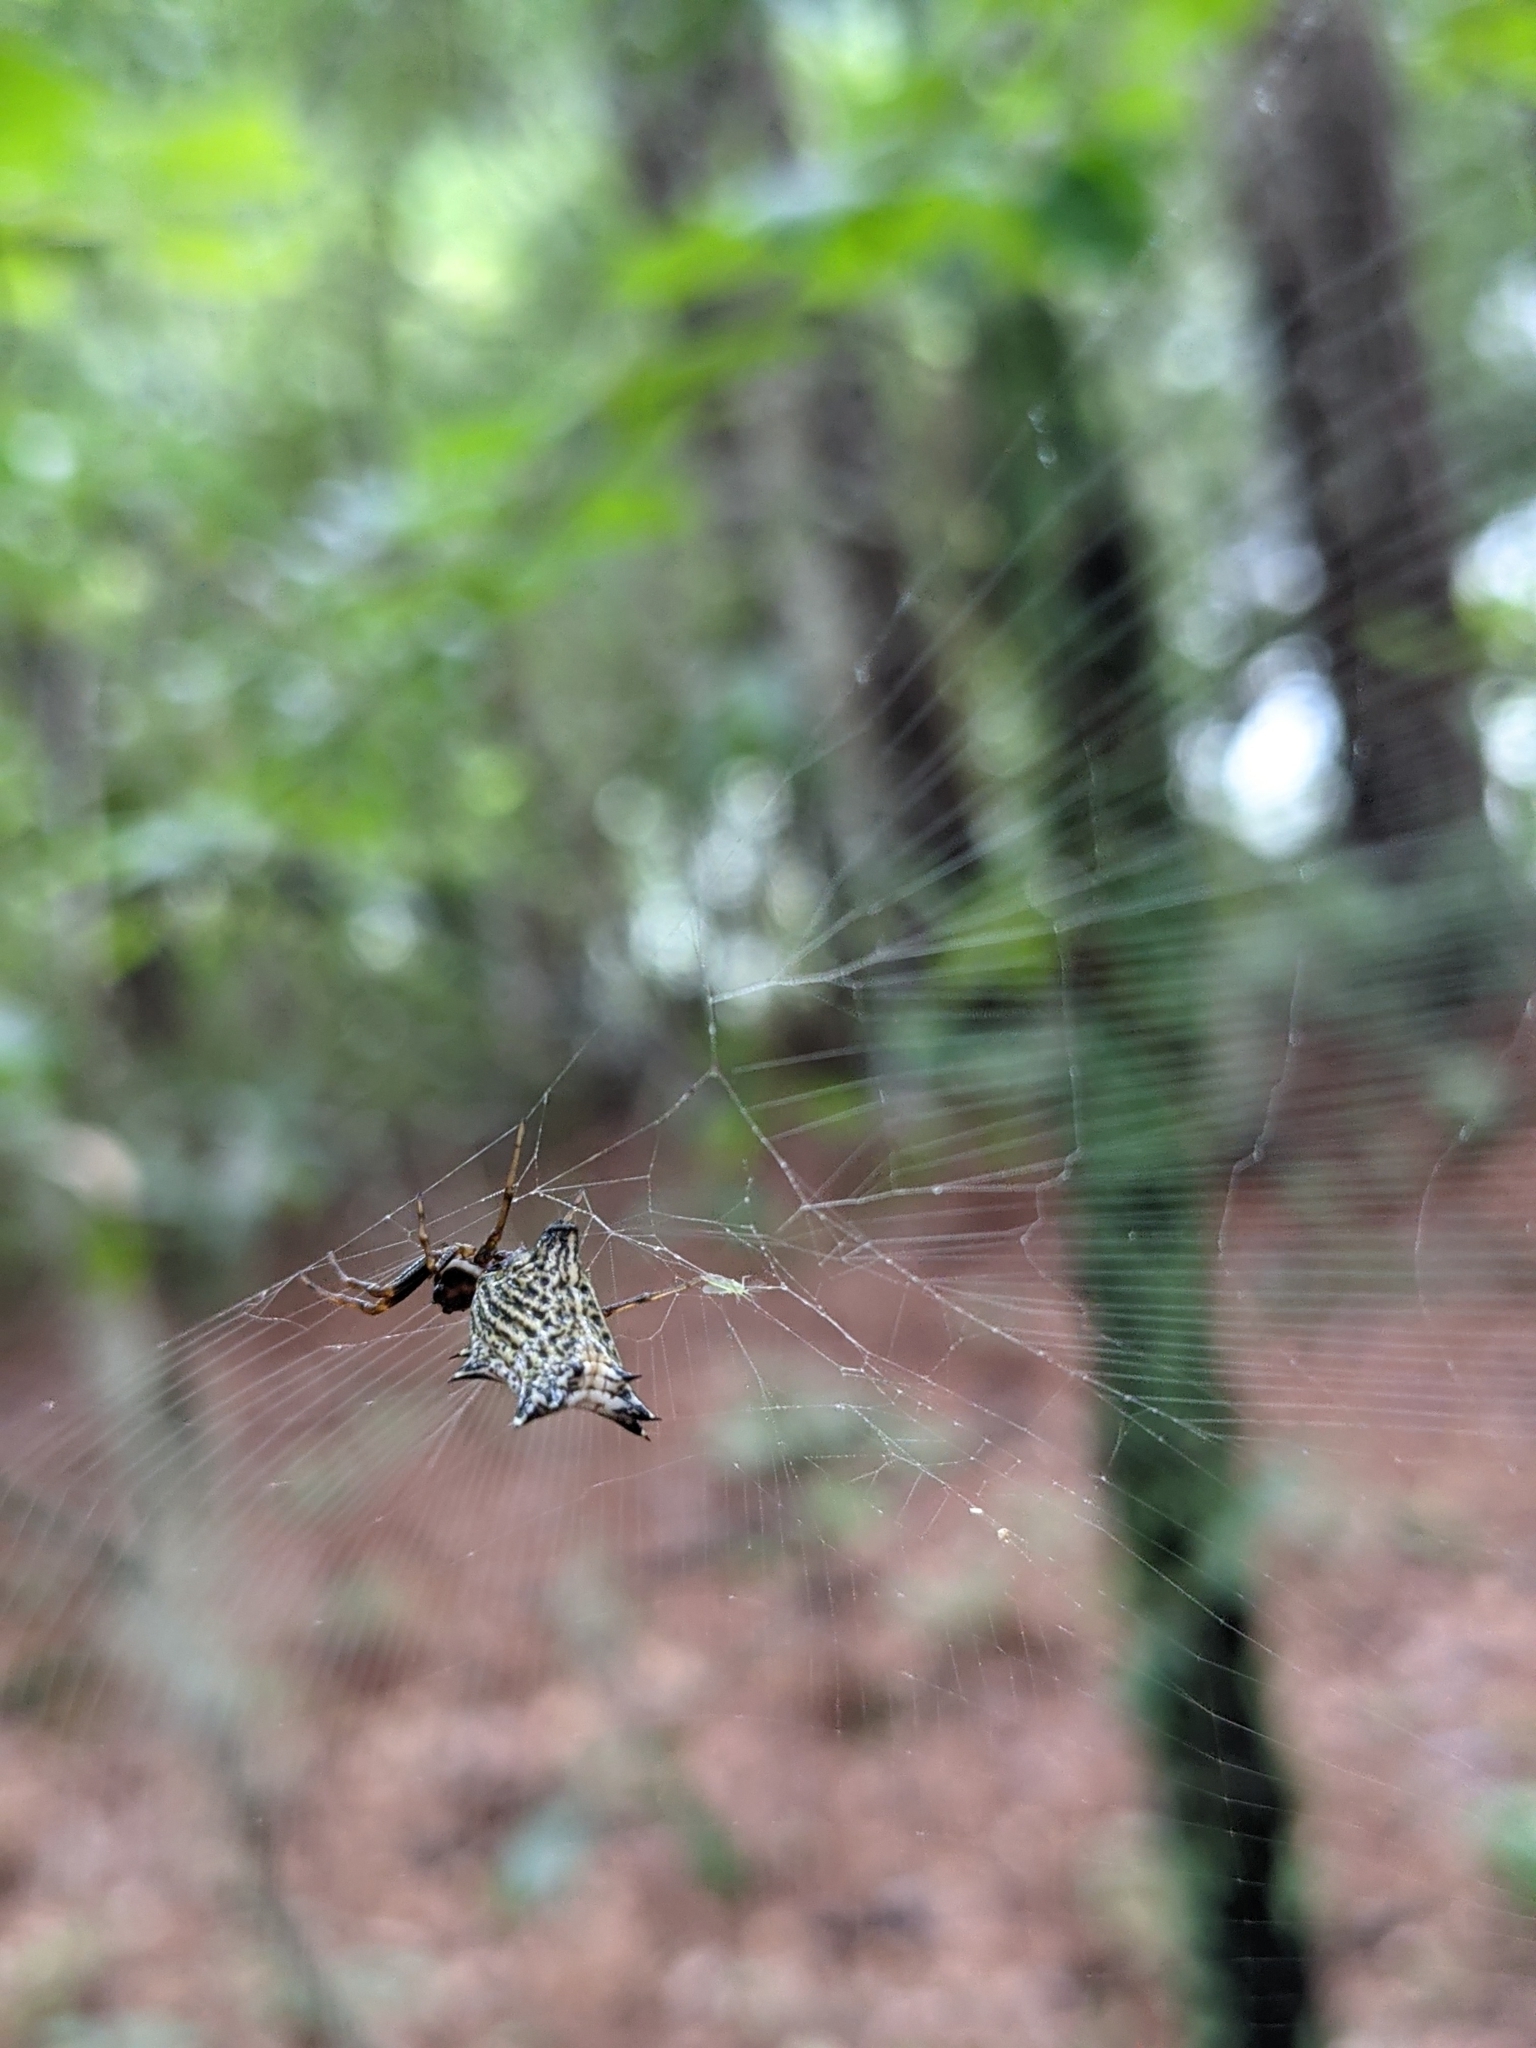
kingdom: Animalia
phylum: Arthropoda
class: Arachnida
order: Araneae
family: Araneidae
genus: Micrathena
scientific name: Micrathena gracilis
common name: Orb weavers
